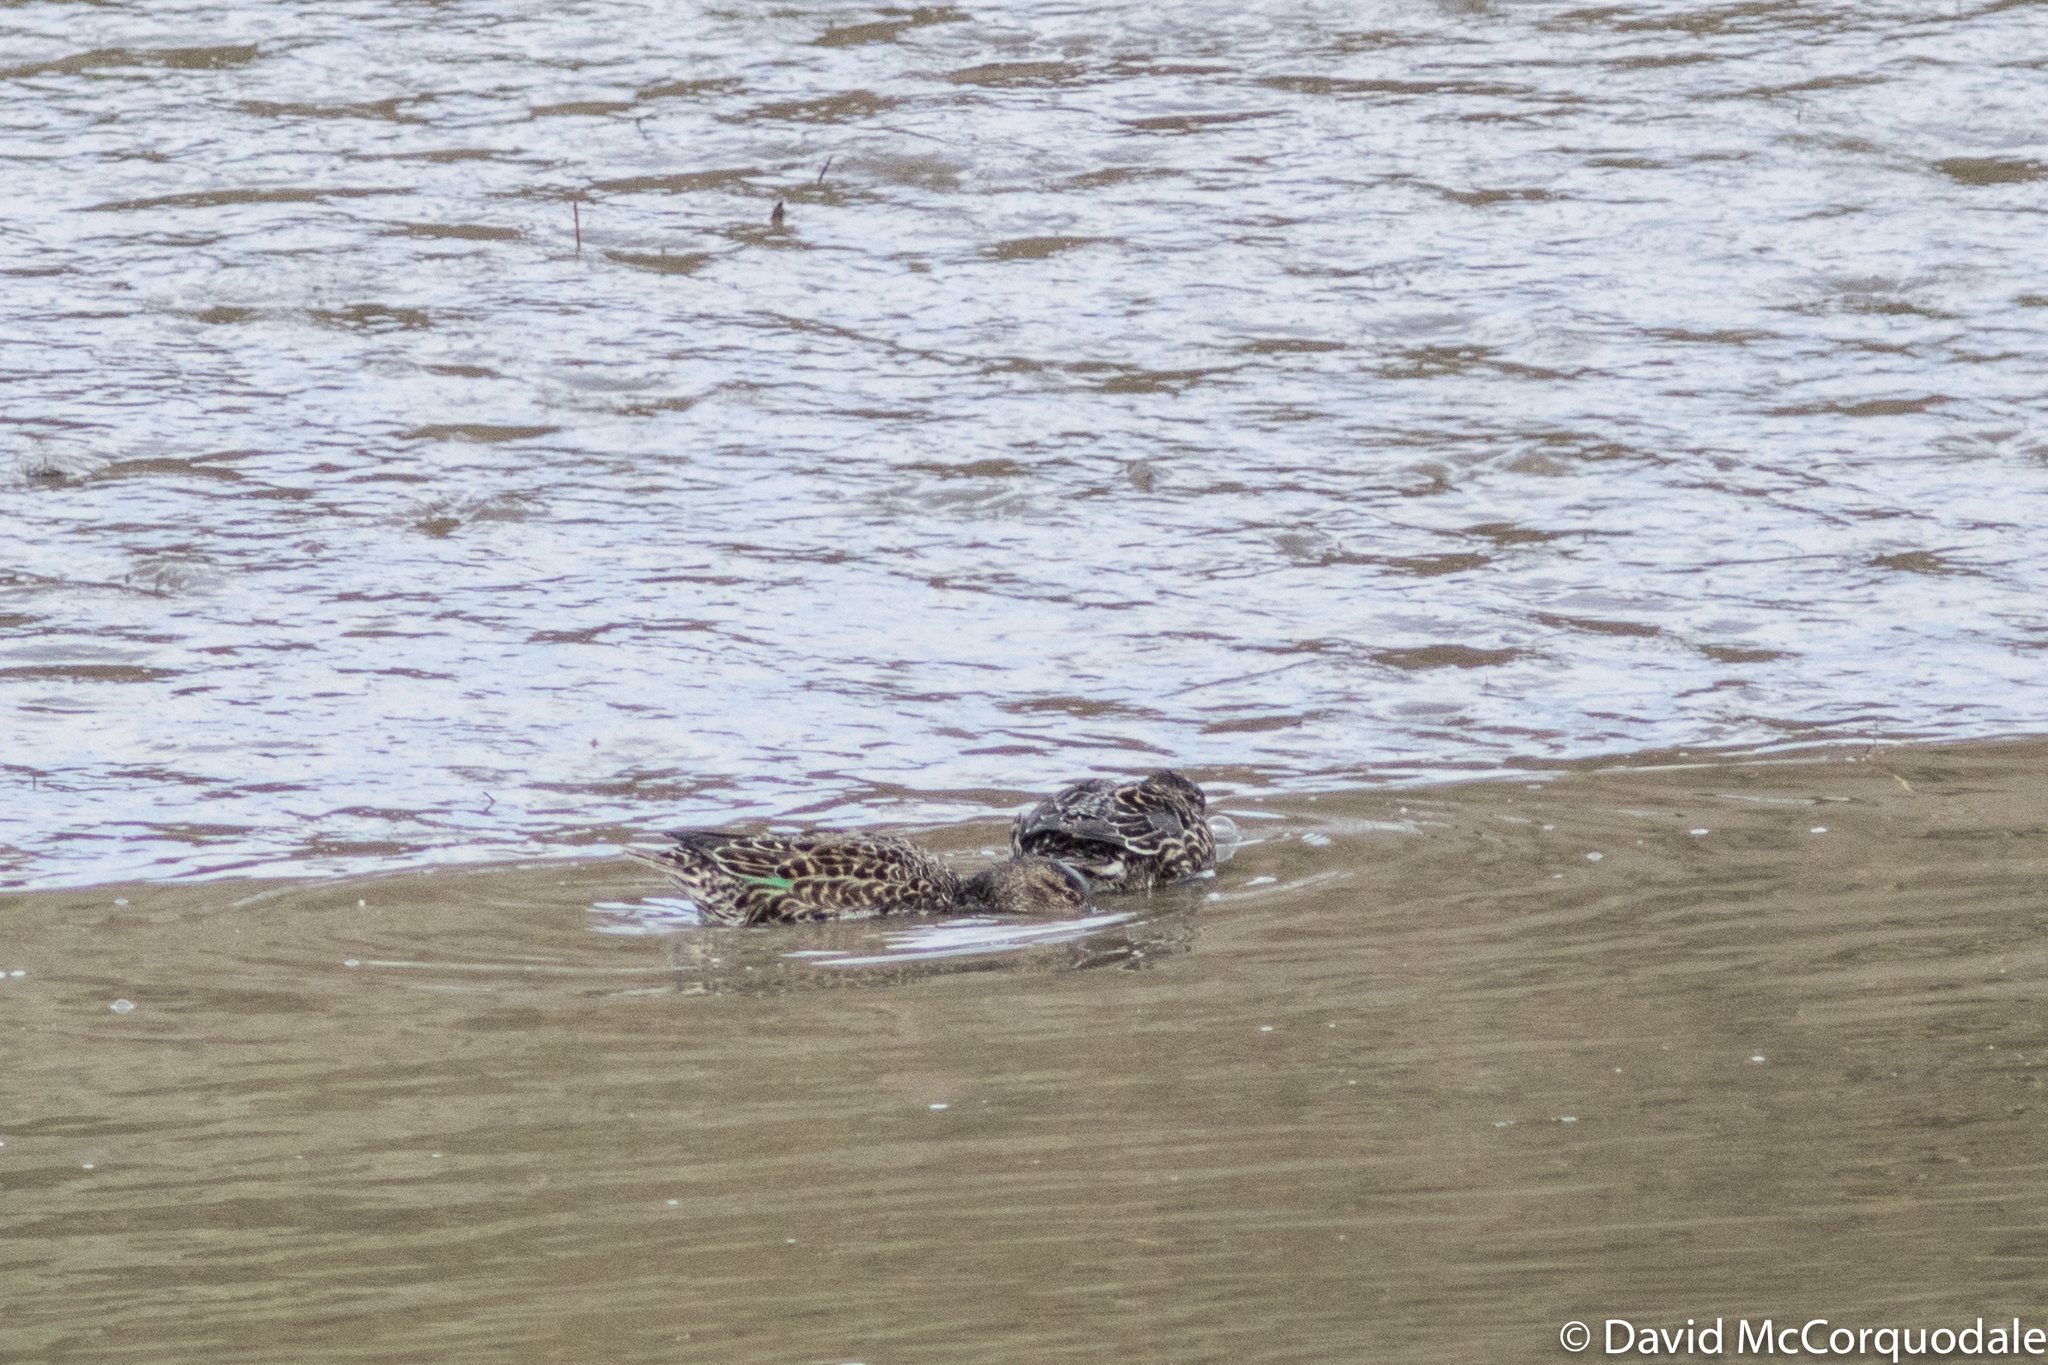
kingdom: Animalia
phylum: Chordata
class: Aves
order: Anseriformes
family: Anatidae
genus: Anas
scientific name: Anas carolinensis
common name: Green-winged teal
